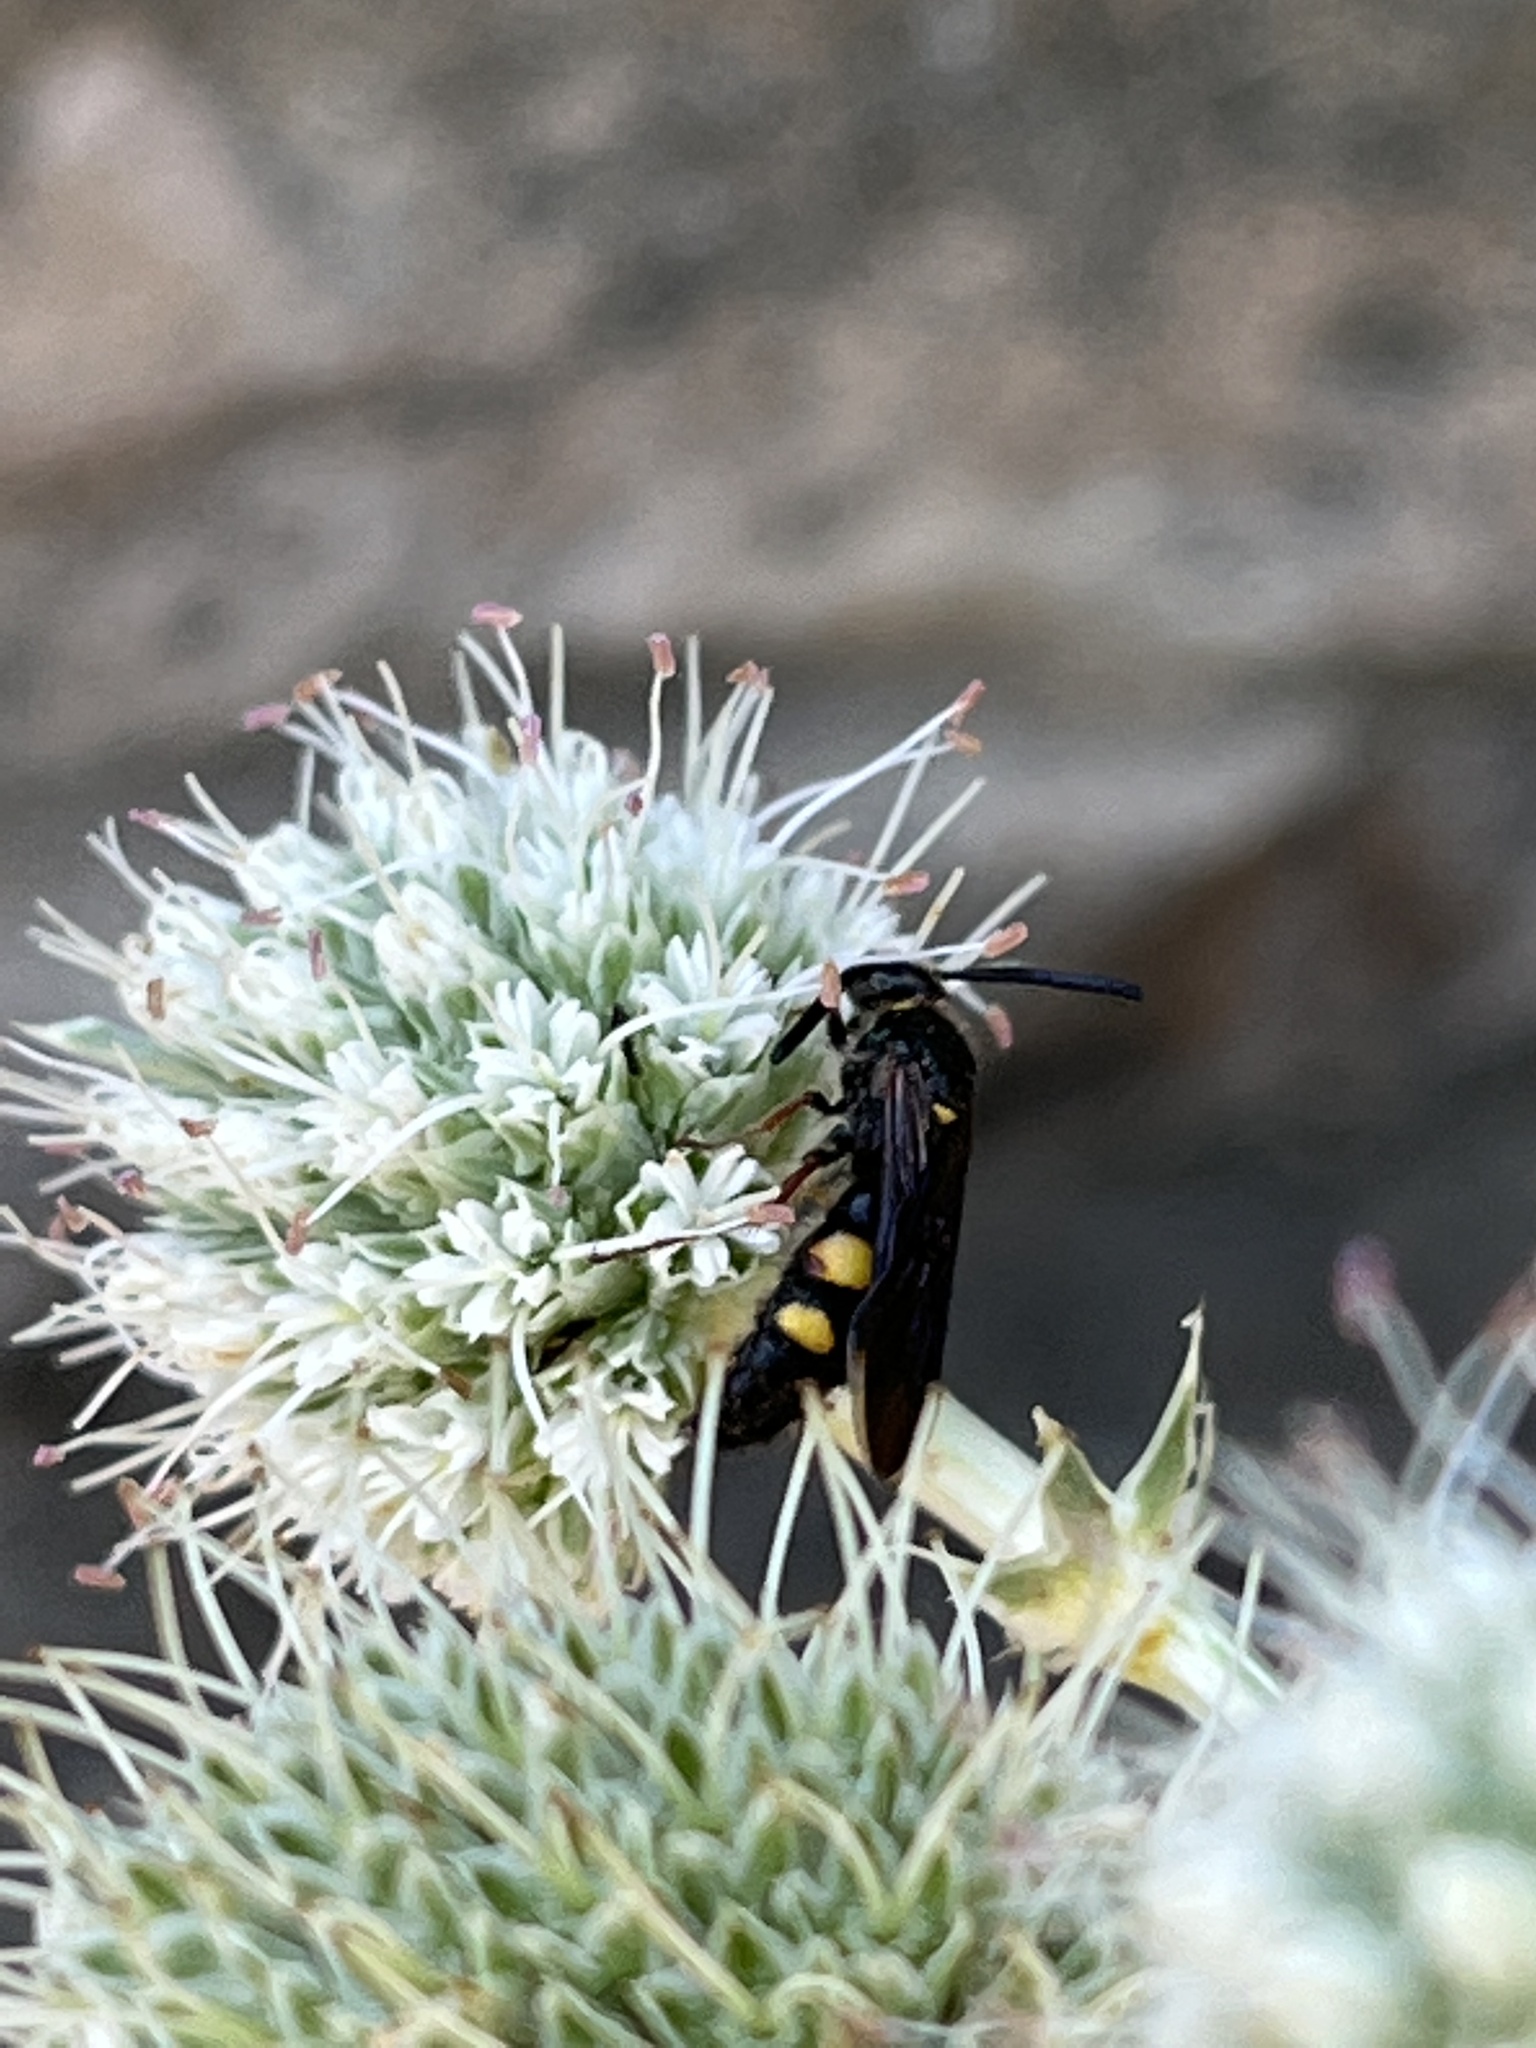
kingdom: Animalia
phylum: Arthropoda
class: Insecta
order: Hymenoptera
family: Scoliidae
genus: Scolia
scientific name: Scolia nobilitata
